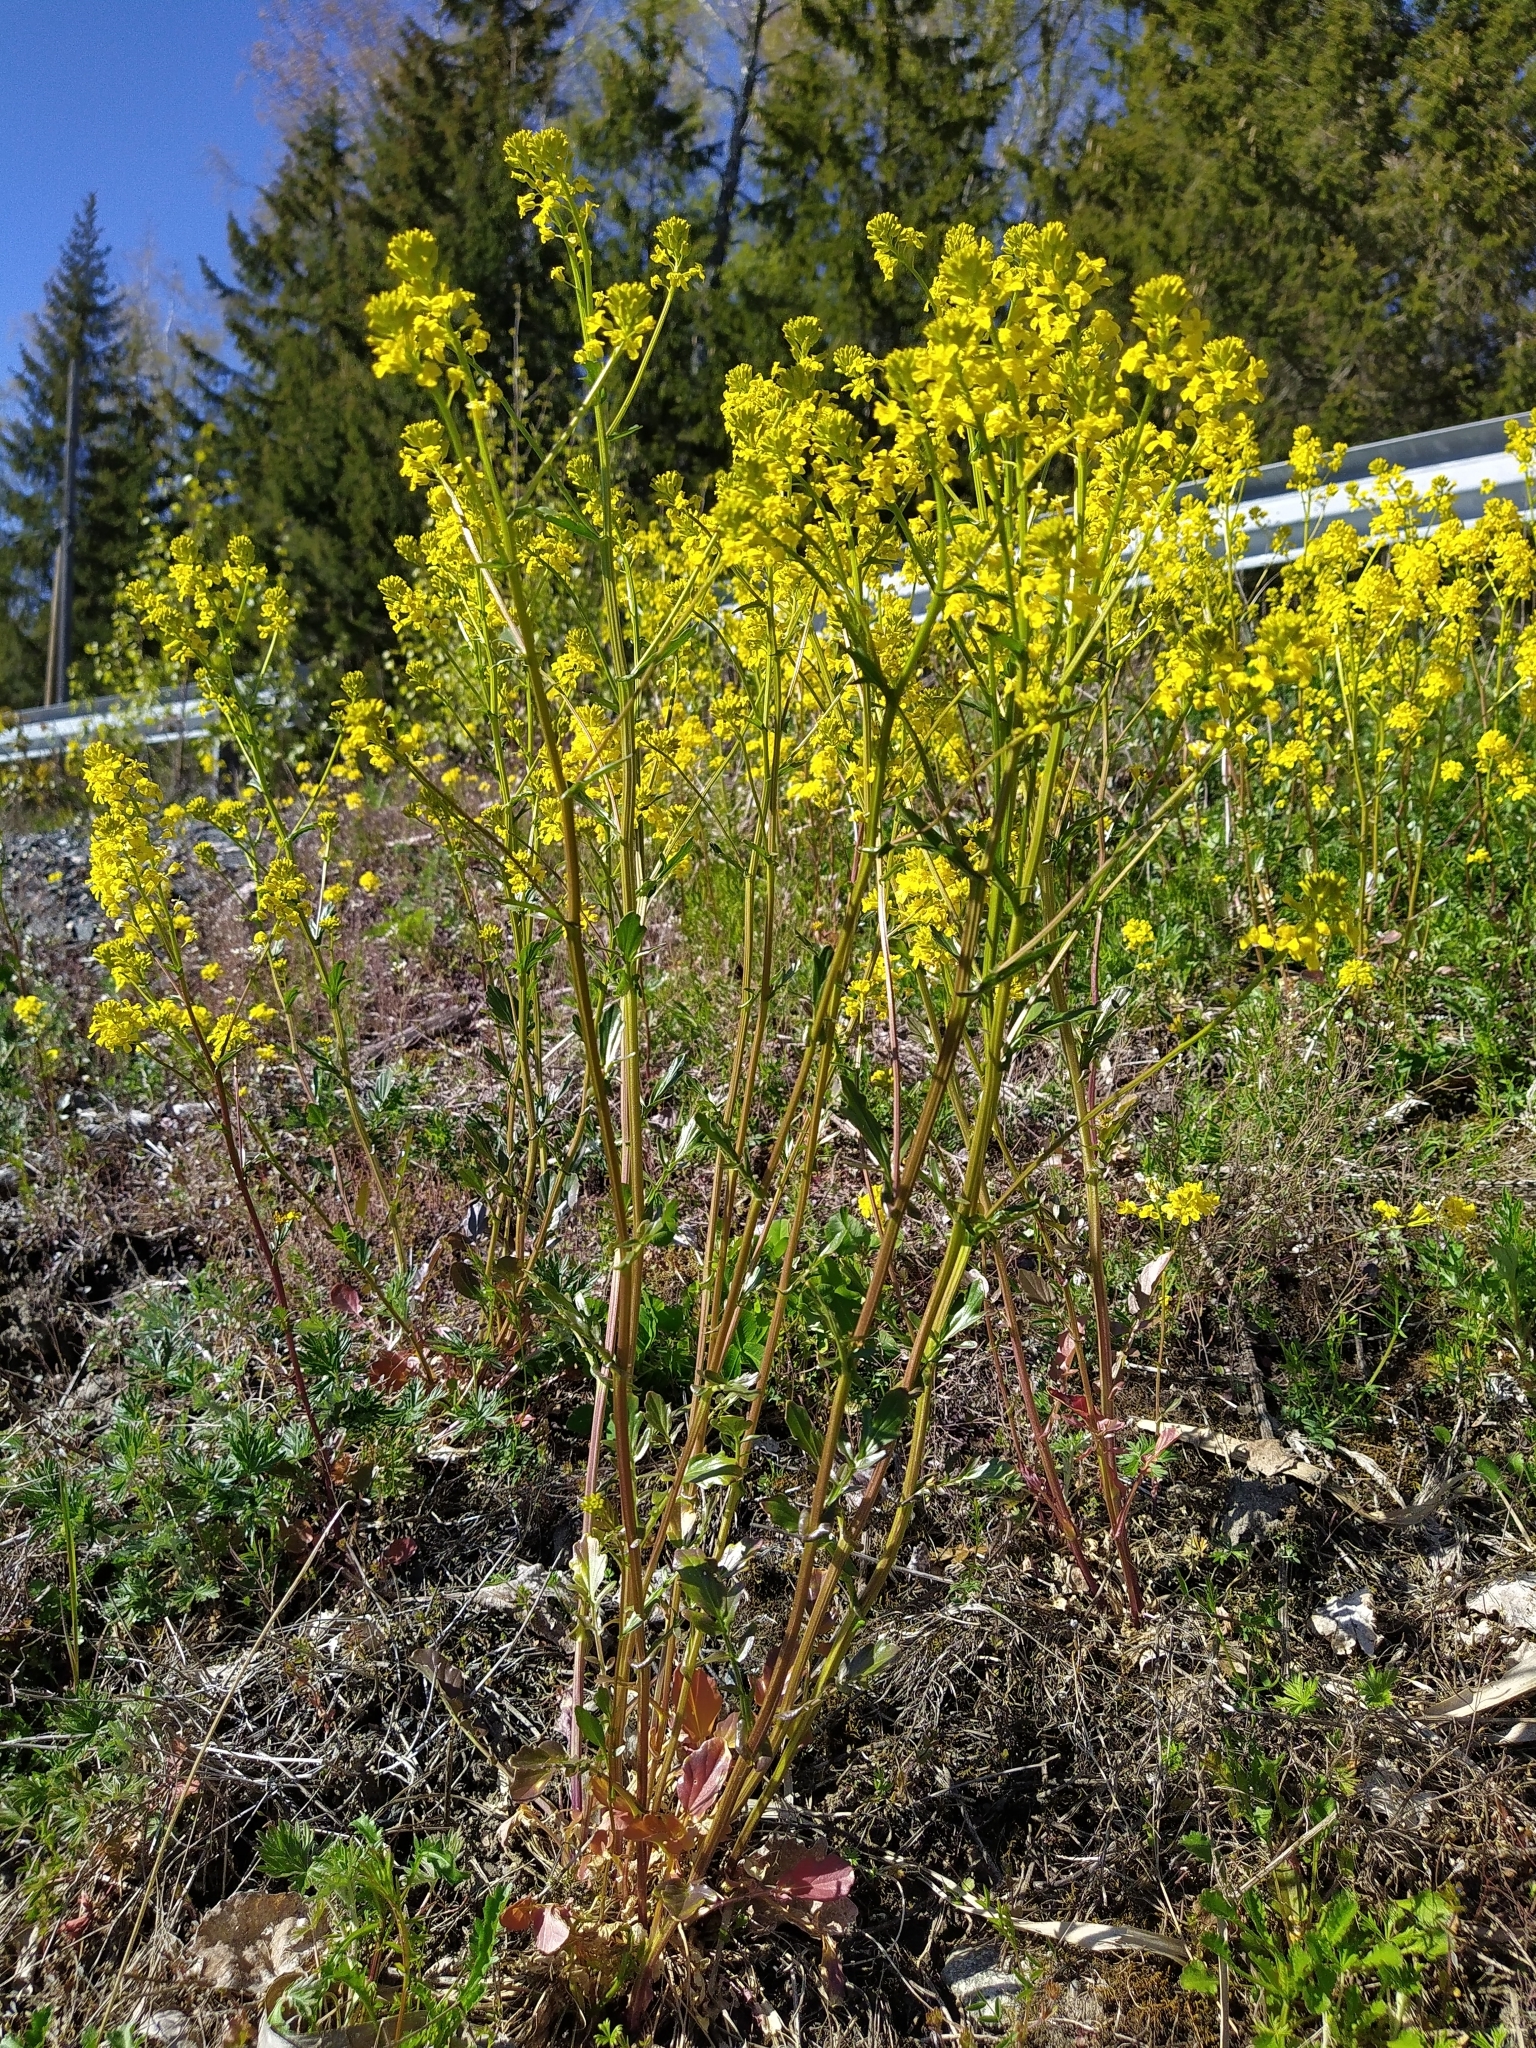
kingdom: Plantae
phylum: Tracheophyta
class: Magnoliopsida
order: Brassicales
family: Brassicaceae
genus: Barbarea
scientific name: Barbarea vulgaris
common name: Cressy-greens
